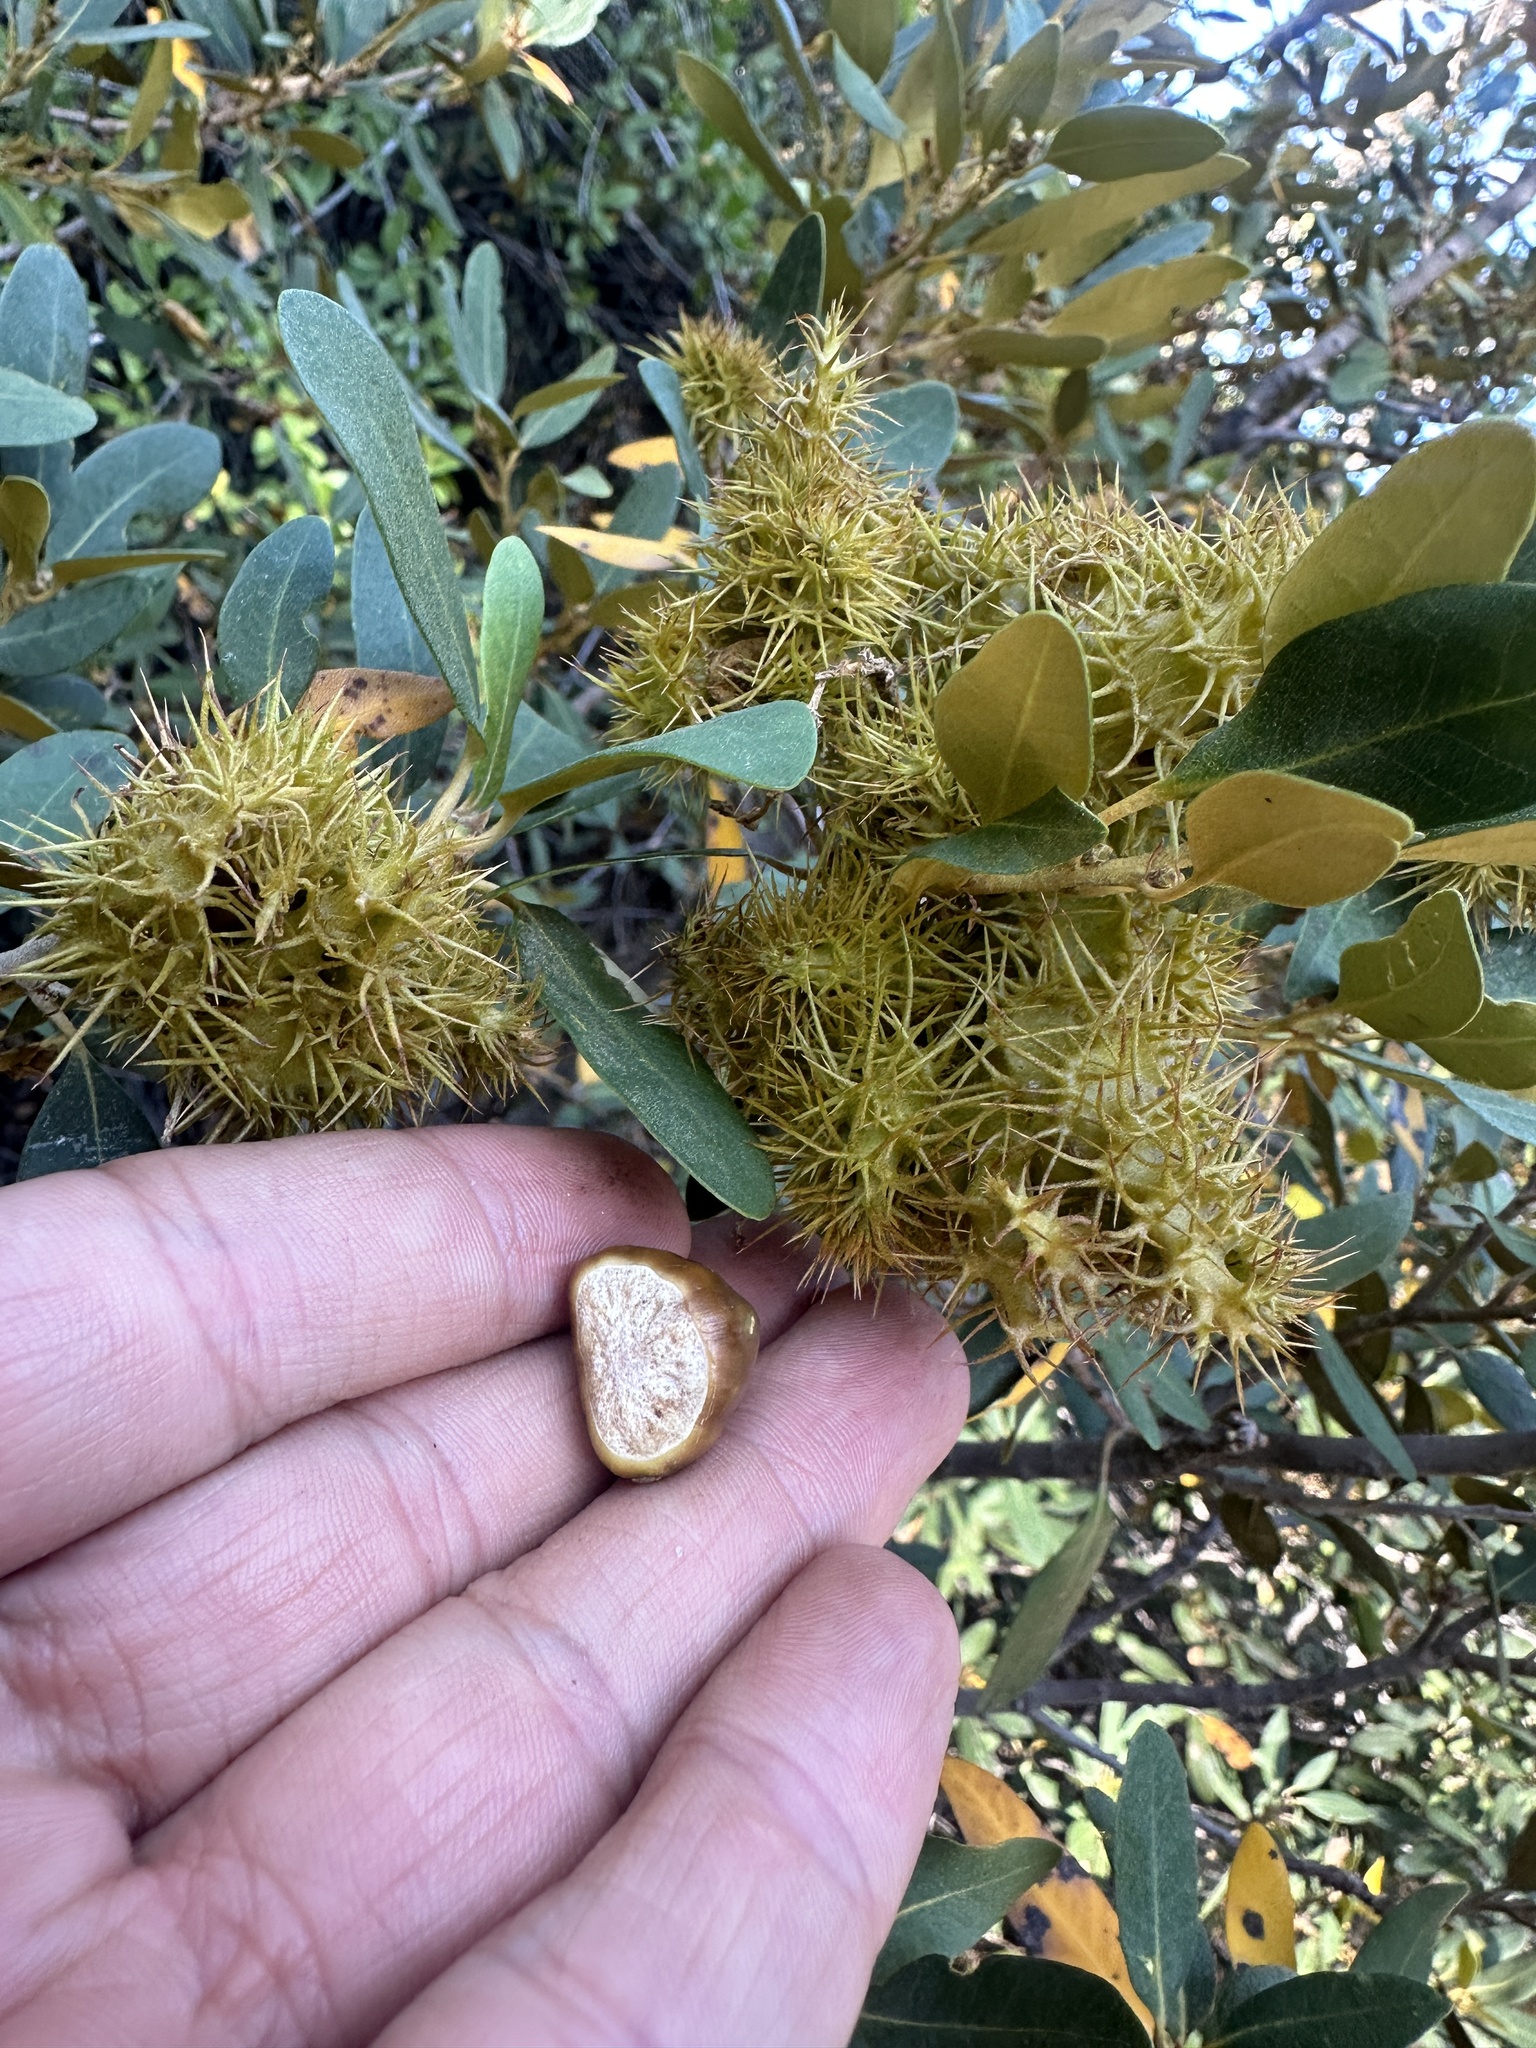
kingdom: Plantae
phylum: Tracheophyta
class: Magnoliopsida
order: Fagales
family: Fagaceae
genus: Chrysolepis
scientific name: Chrysolepis sempervirens
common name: Bush chinquapin
